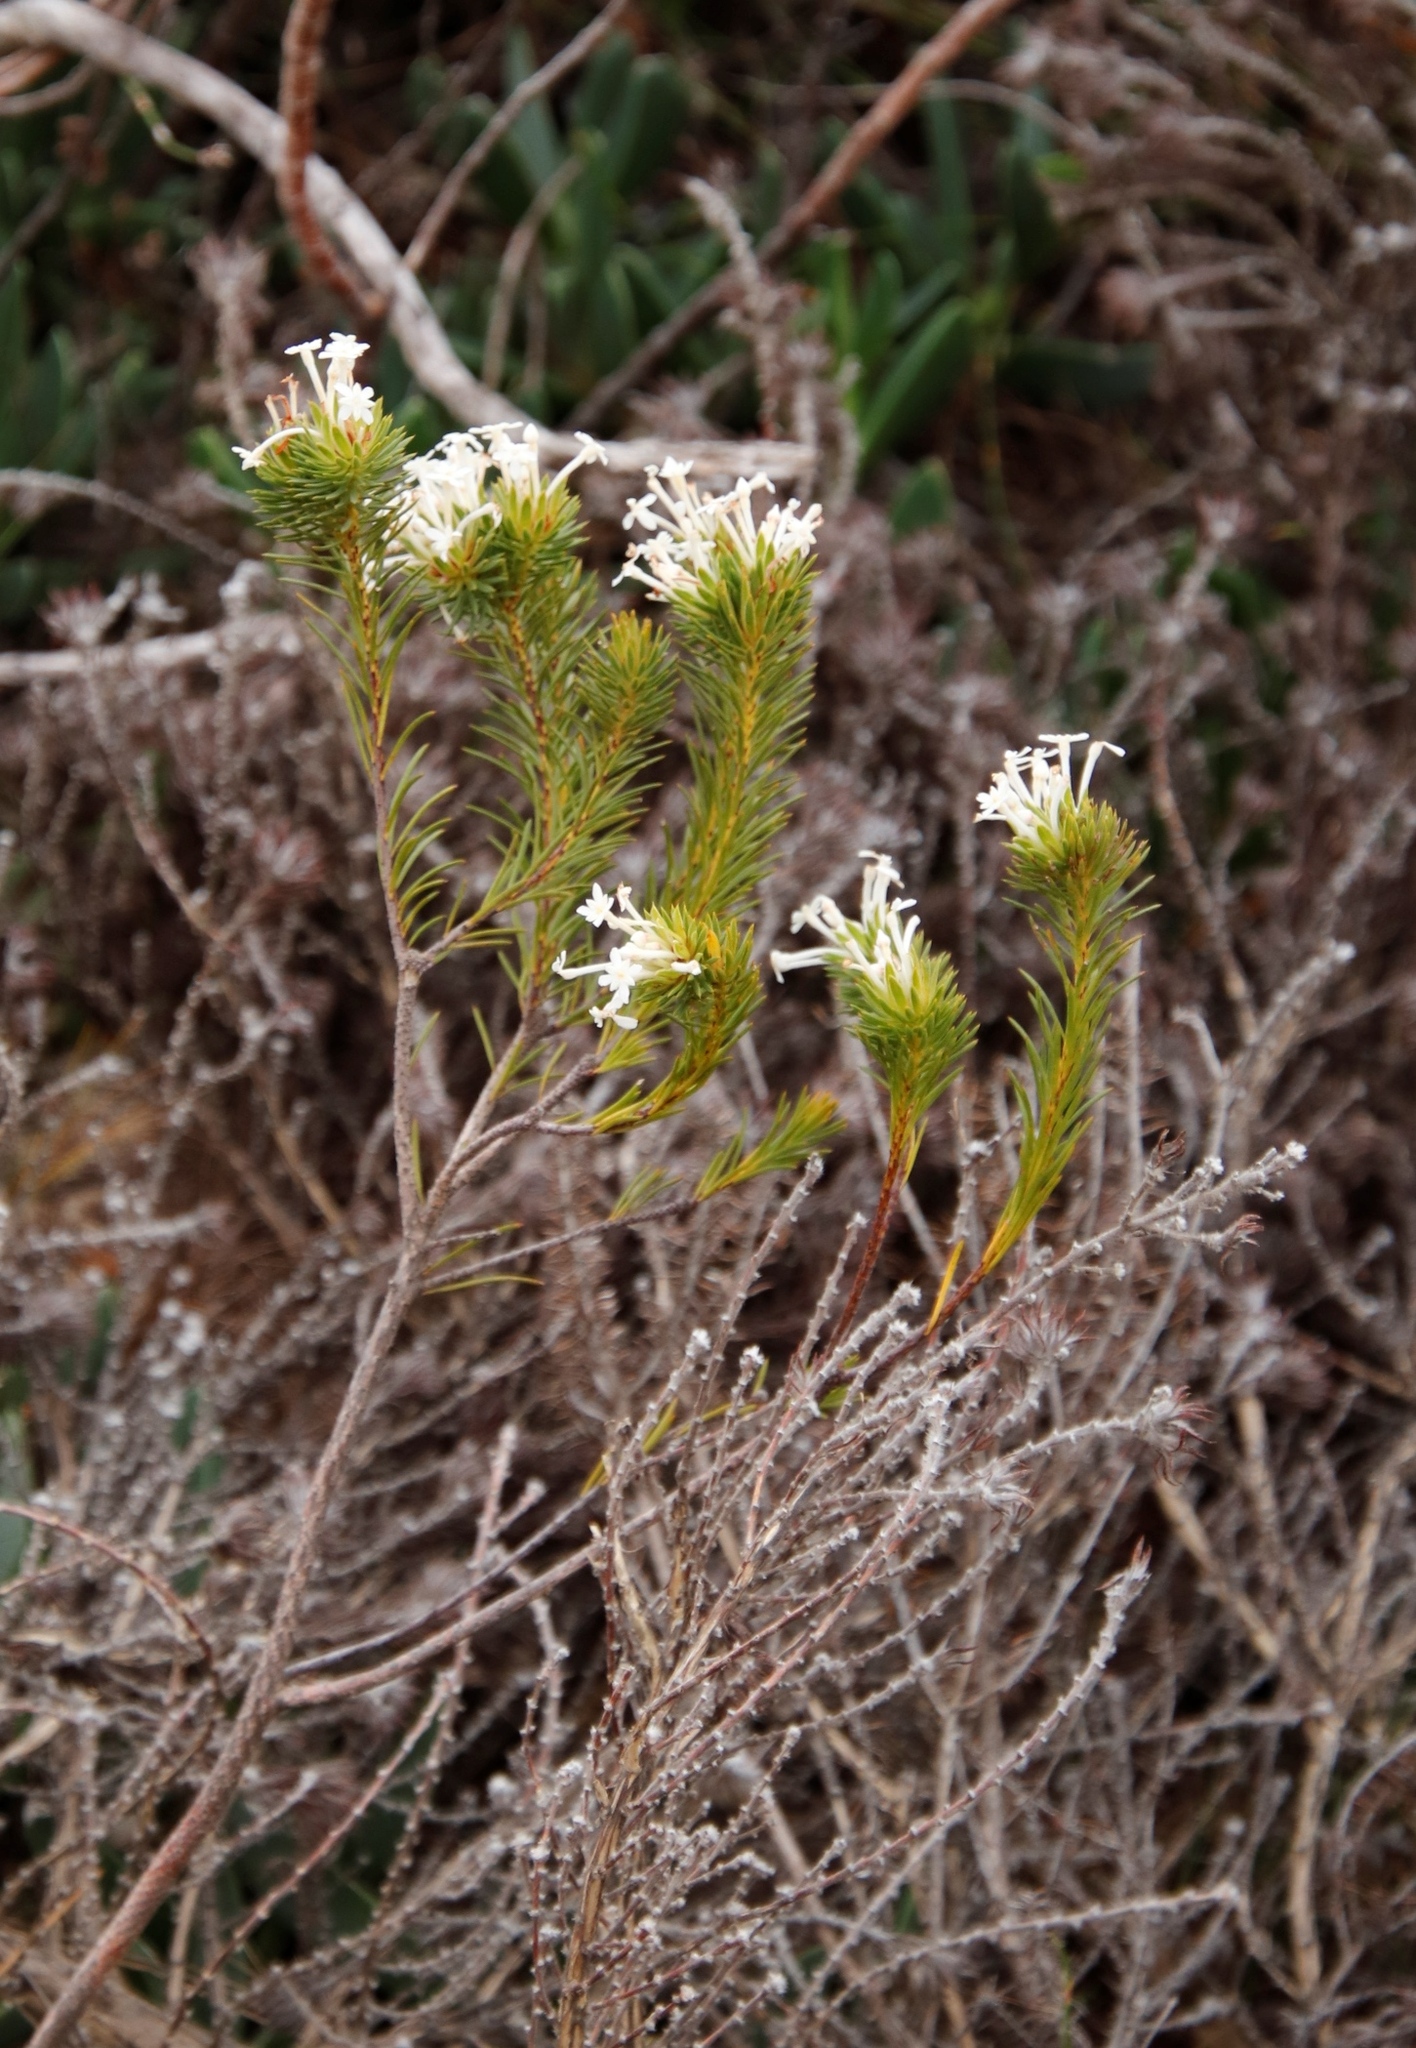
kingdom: Plantae
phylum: Tracheophyta
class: Magnoliopsida
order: Malvales
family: Thymelaeaceae
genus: Gnidia
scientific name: Gnidia pinifolia
